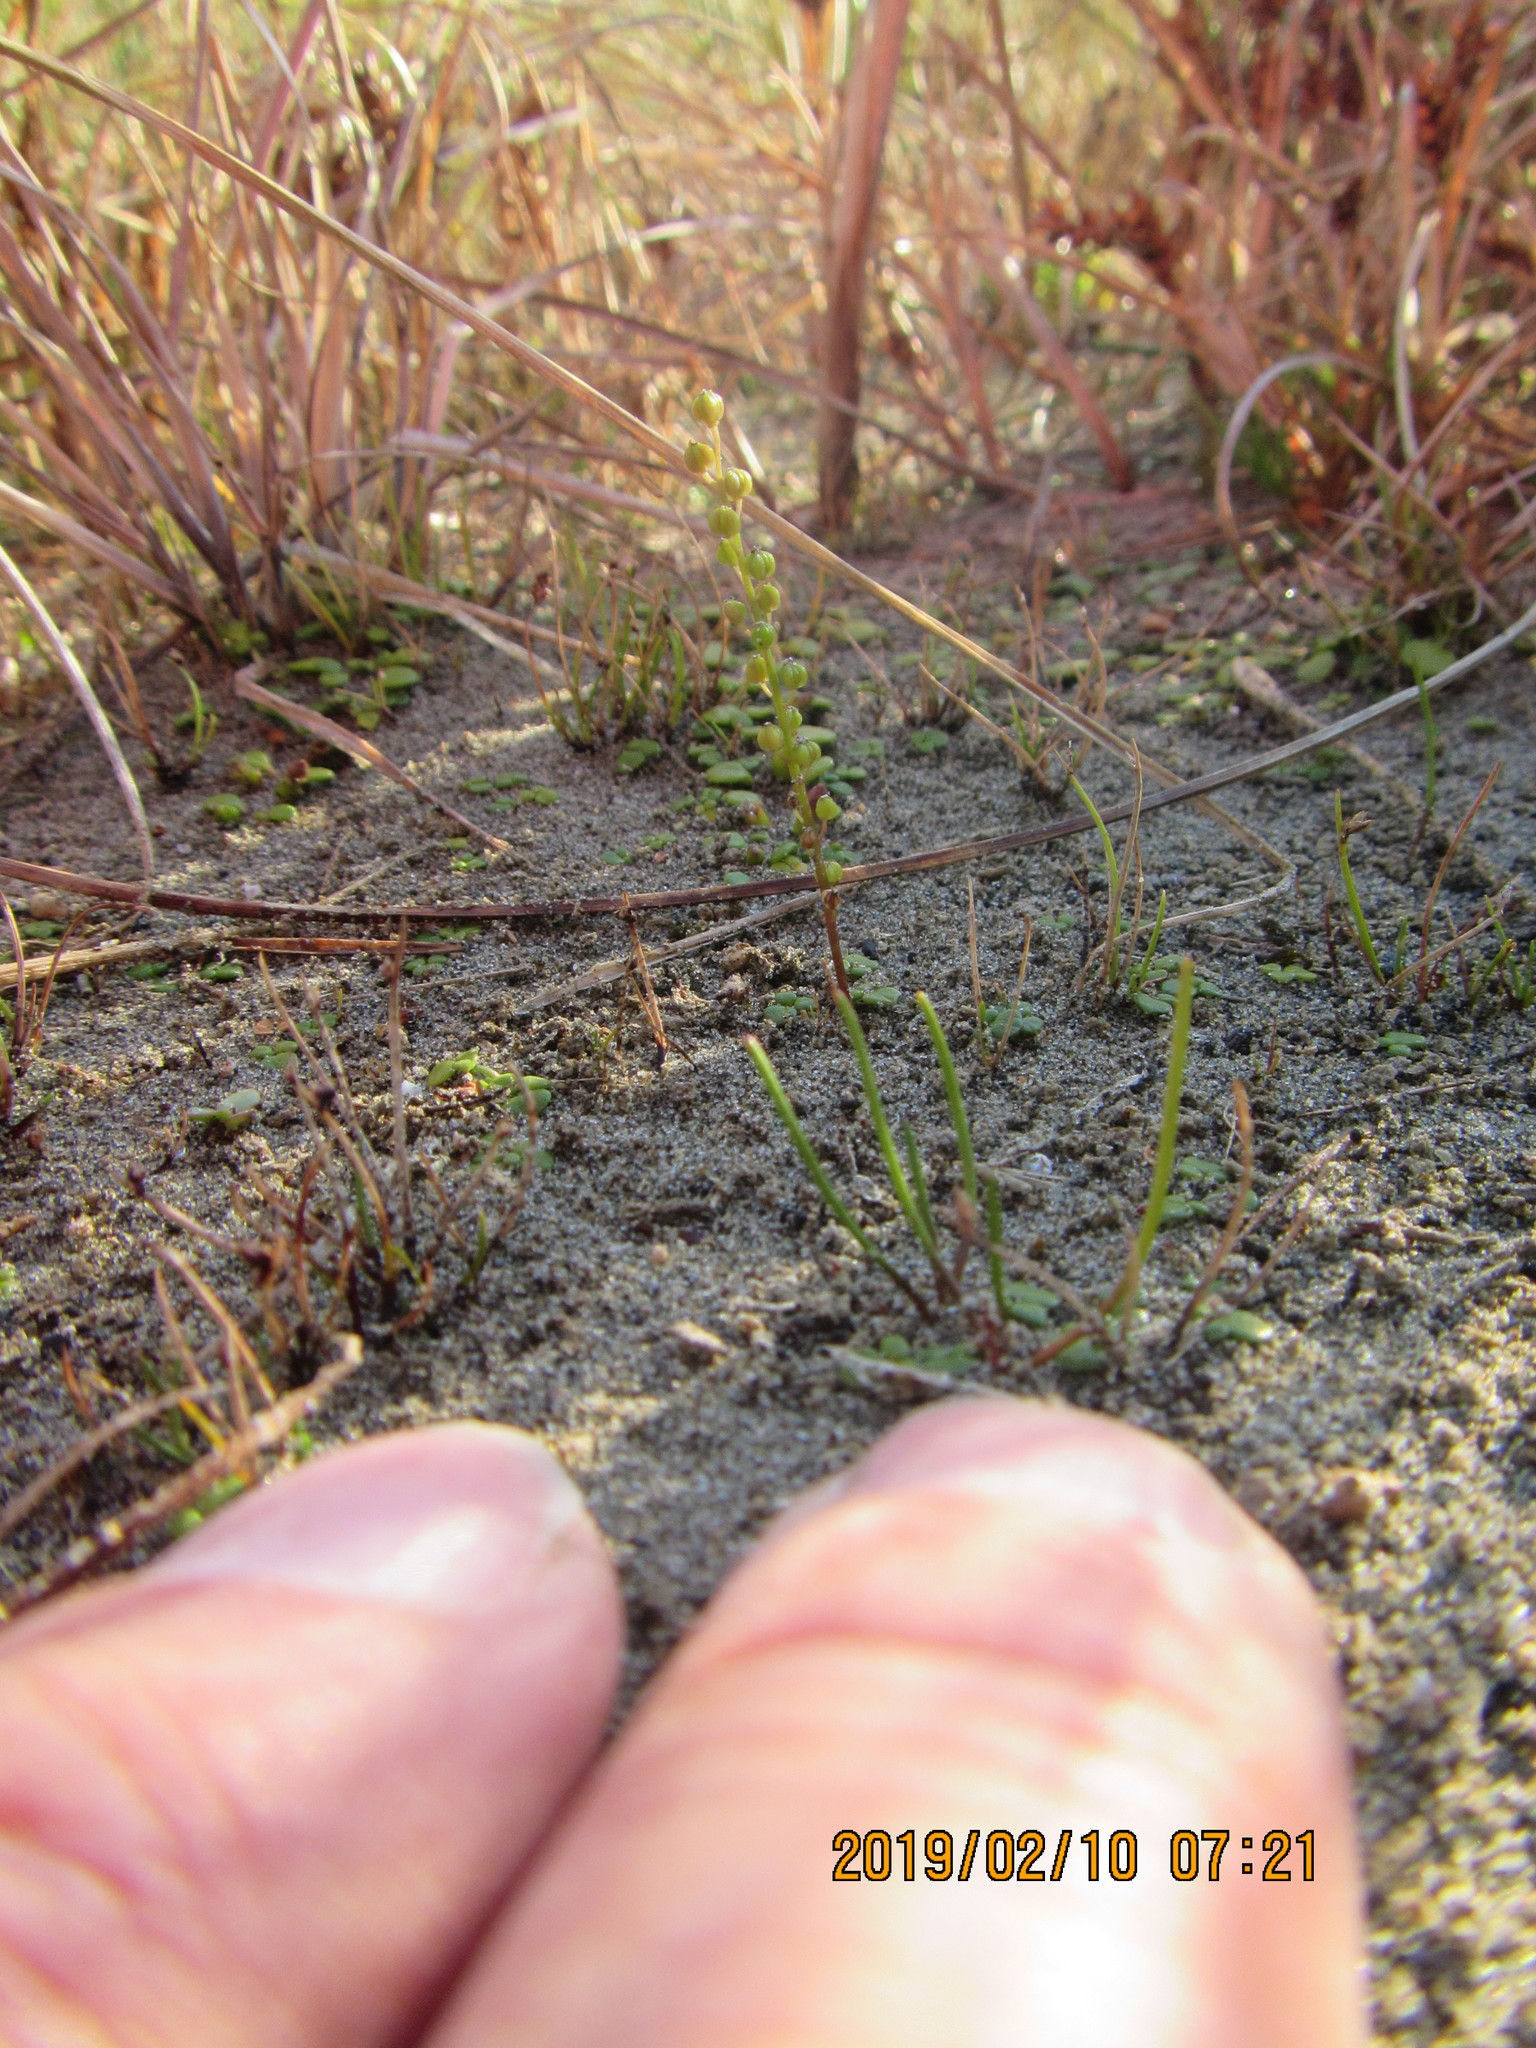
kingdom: Plantae
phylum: Tracheophyta
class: Liliopsida
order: Alismatales
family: Juncaginaceae
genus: Triglochin
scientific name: Triglochin striata
